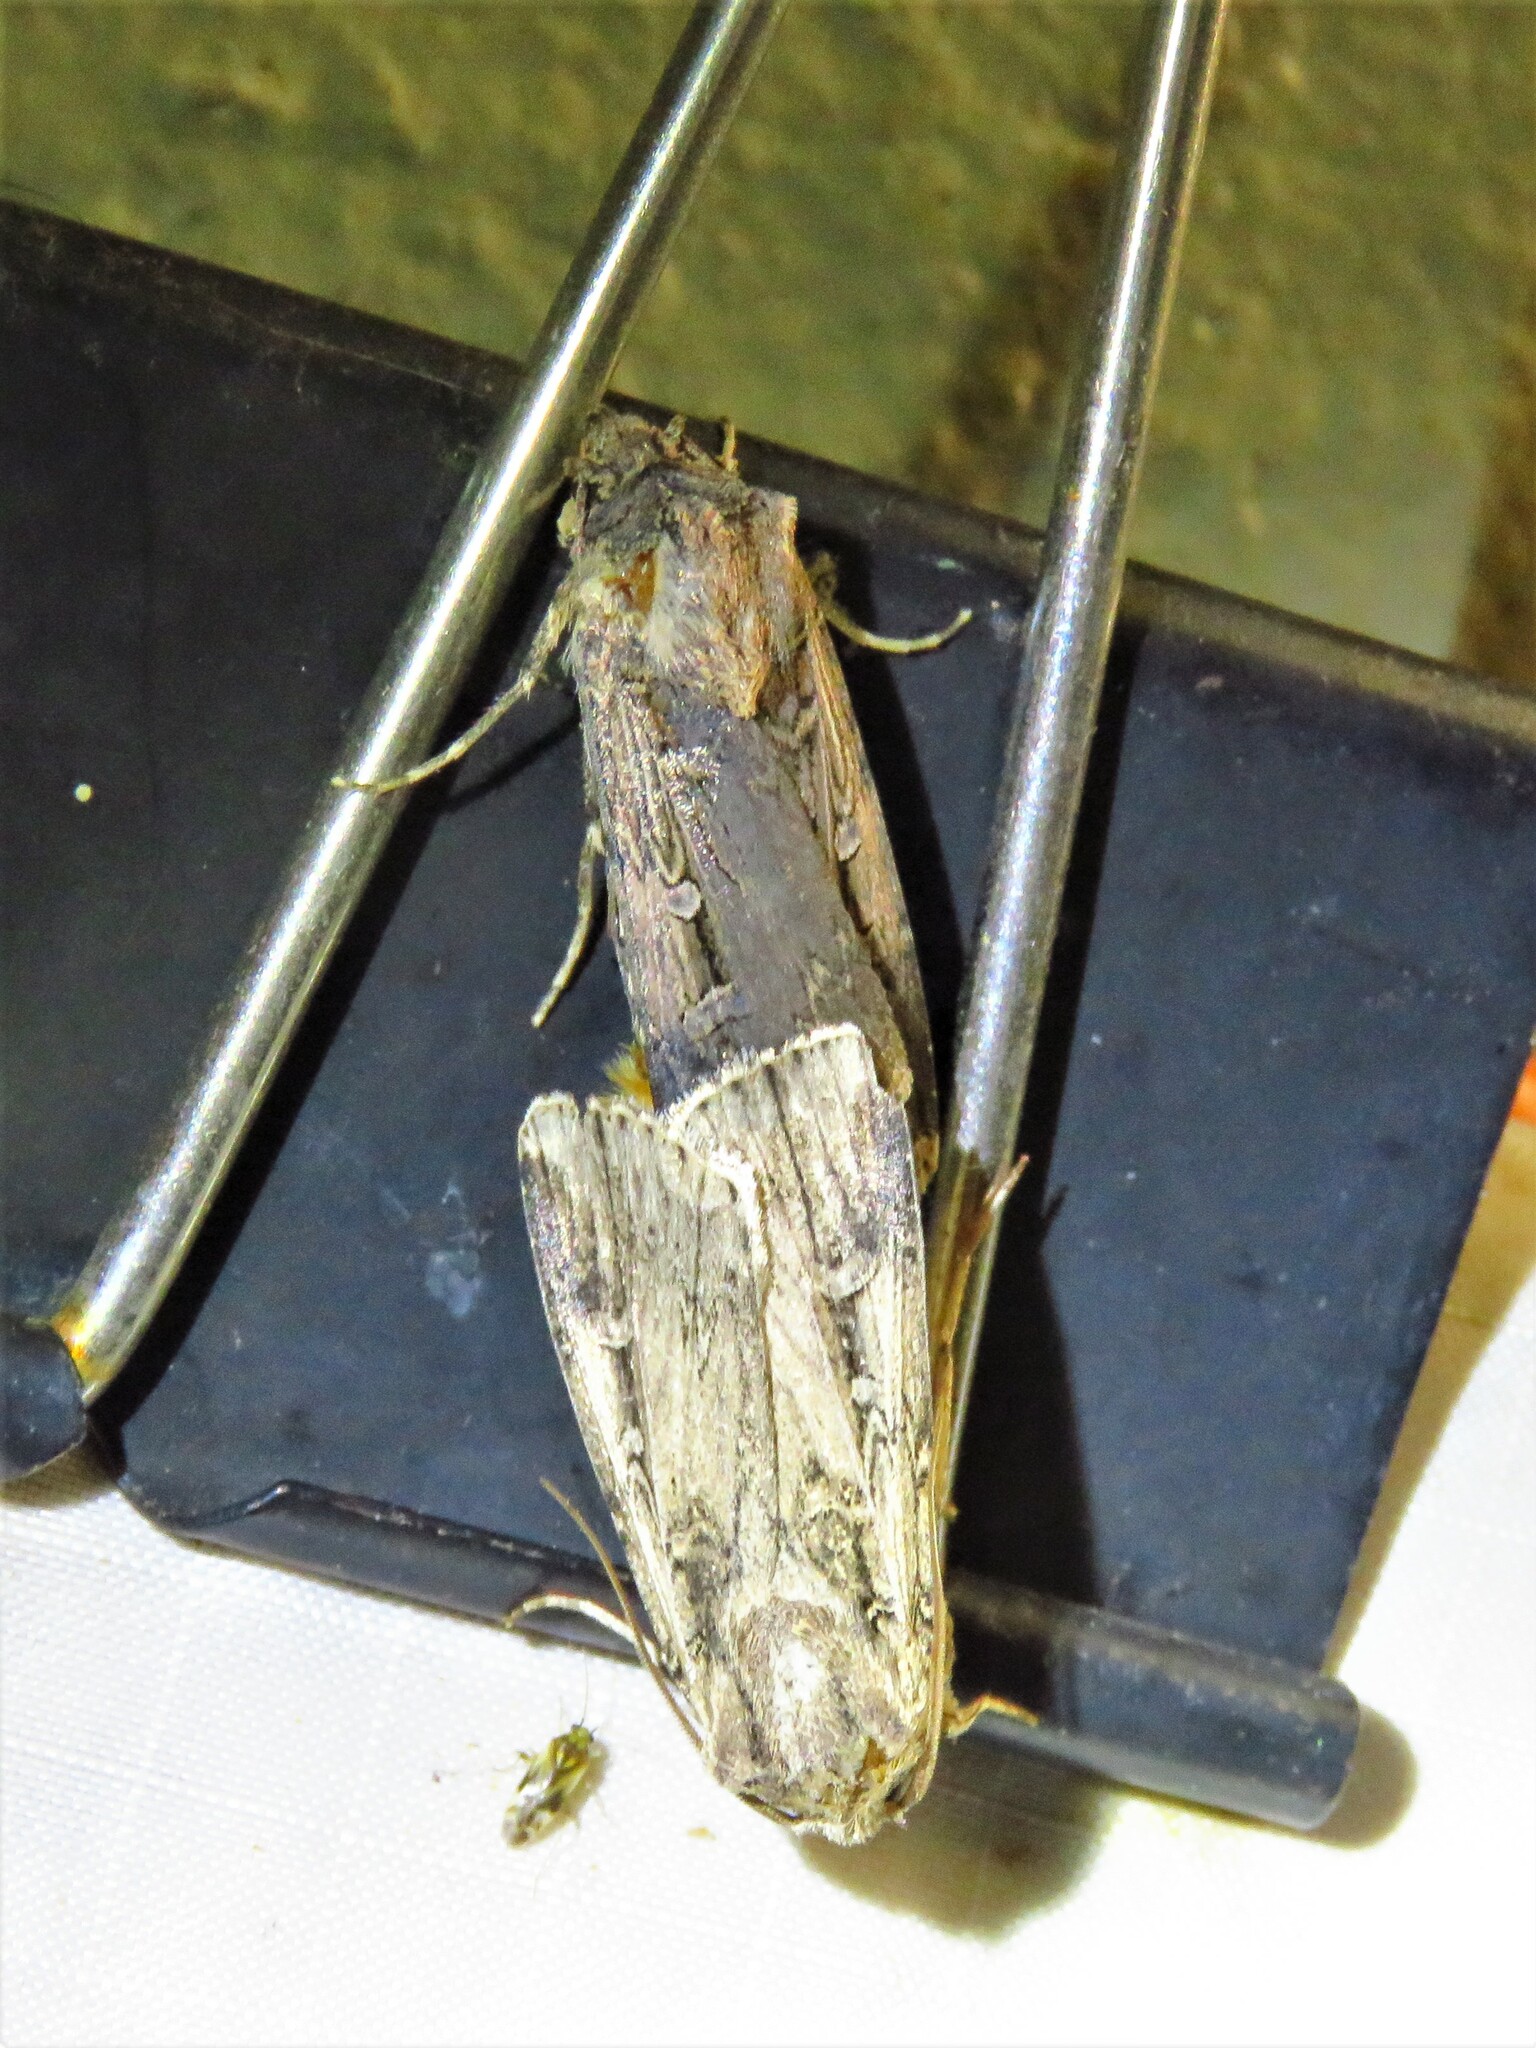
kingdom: Animalia
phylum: Arthropoda
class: Insecta
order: Lepidoptera
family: Noctuidae
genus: Agrotis
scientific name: Agrotis ipsilon
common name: Dark sword-grass
